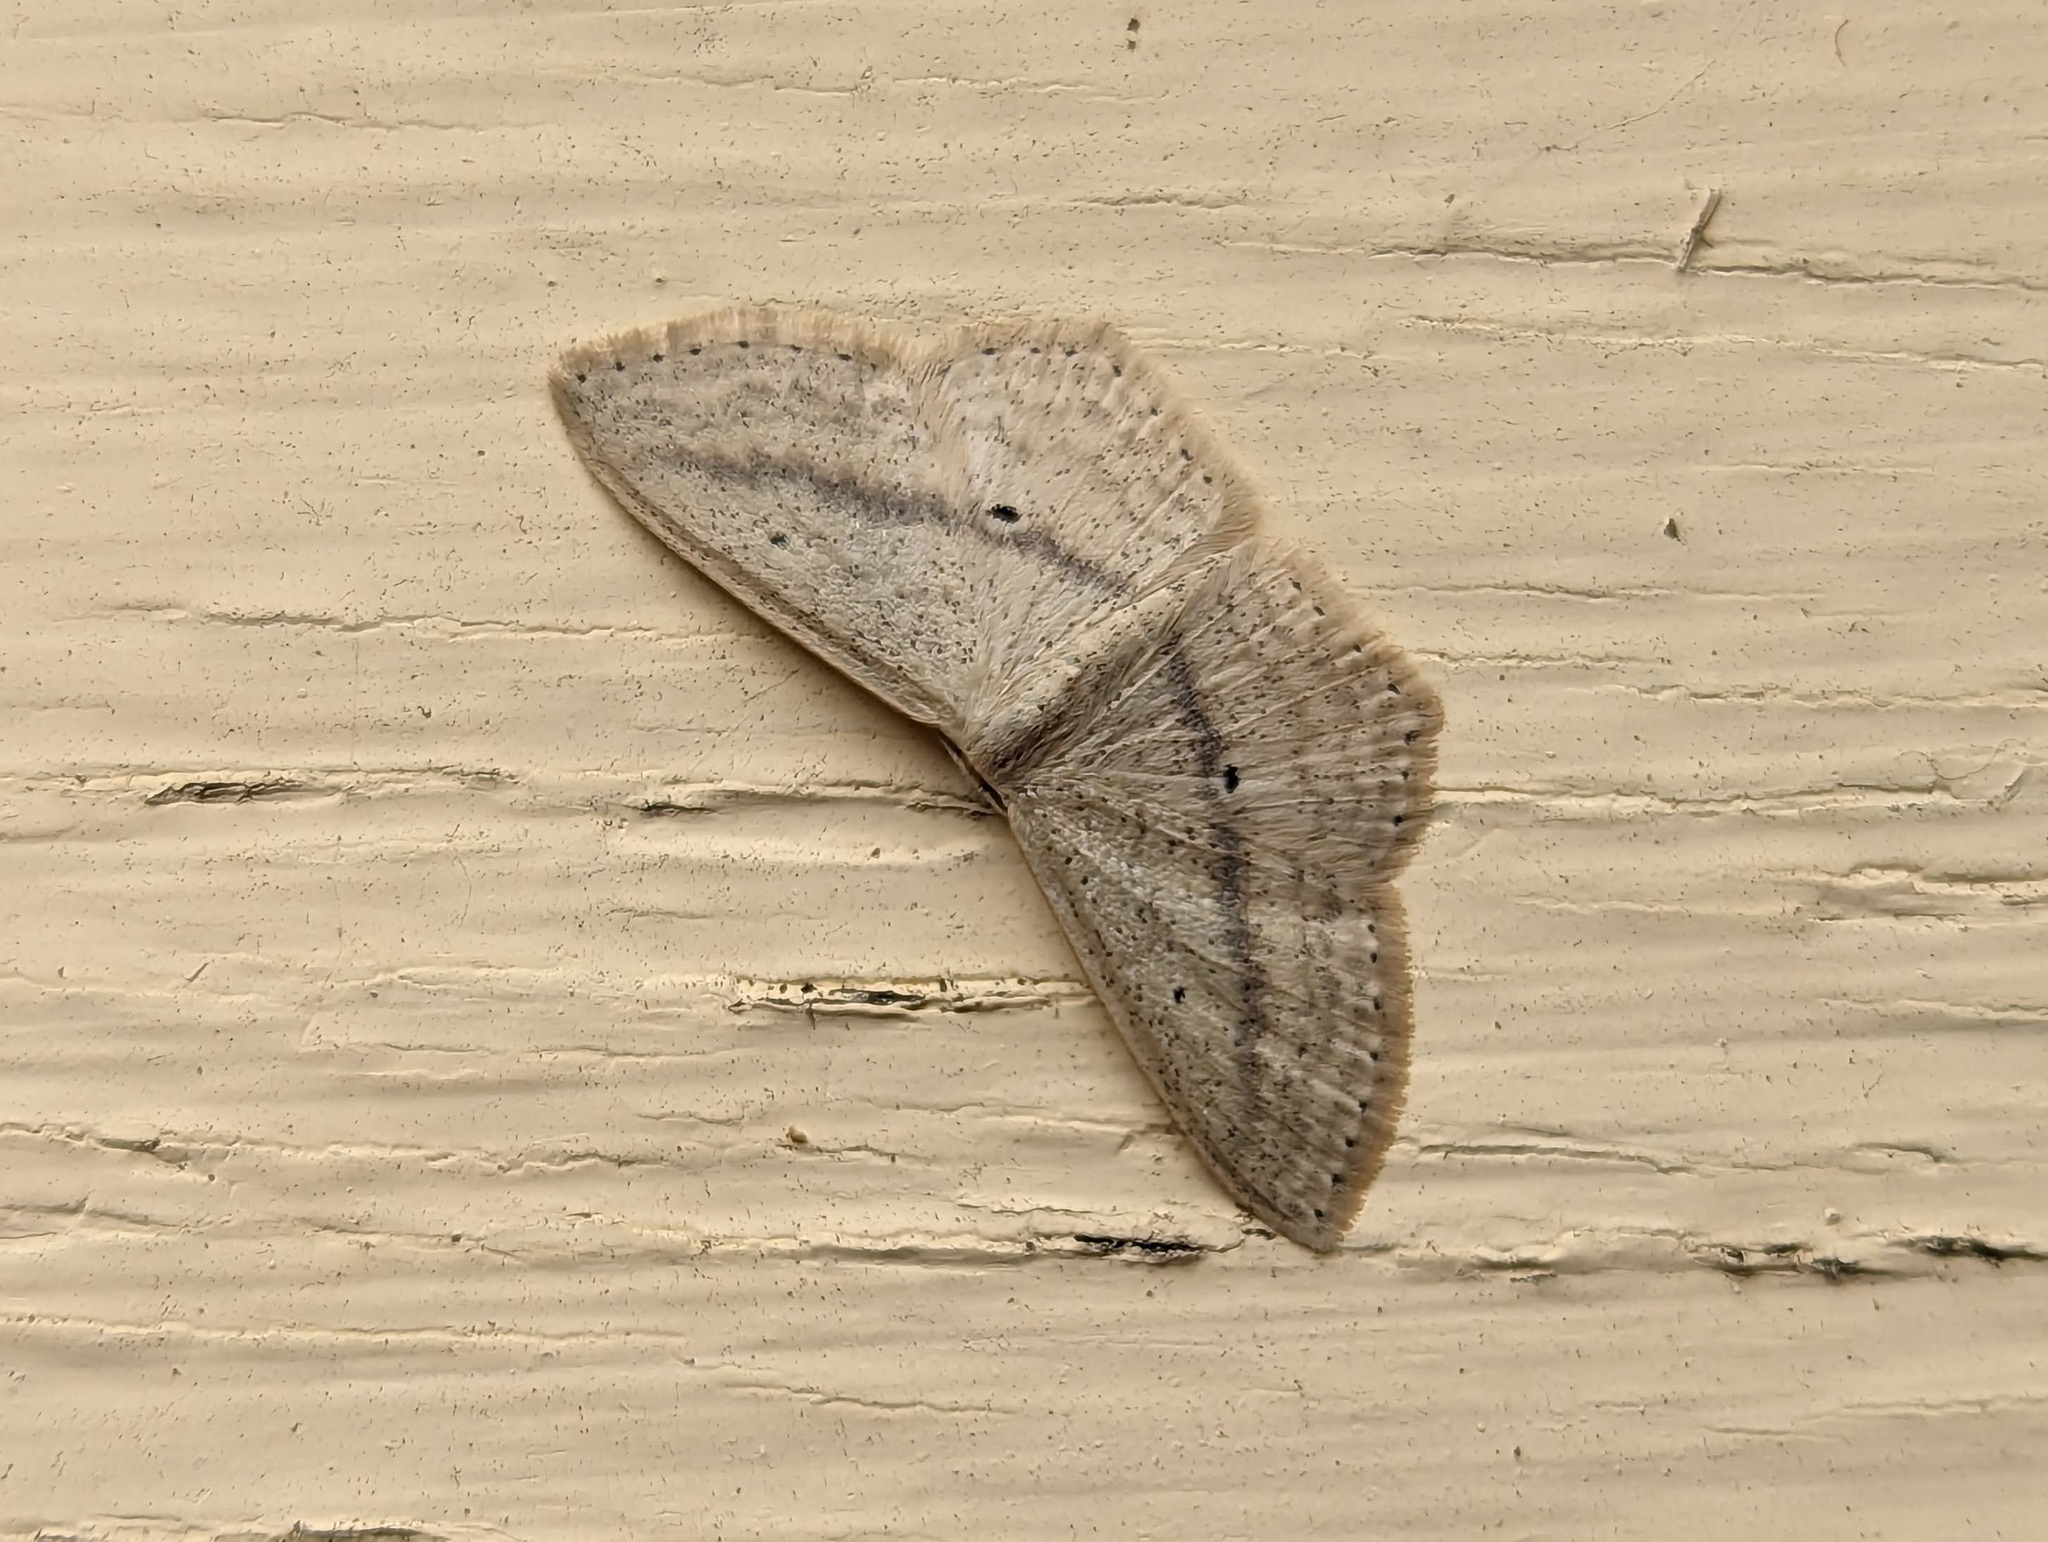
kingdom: Animalia
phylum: Arthropoda
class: Insecta
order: Lepidoptera
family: Geometridae
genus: Scopula
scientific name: Scopula perlata
